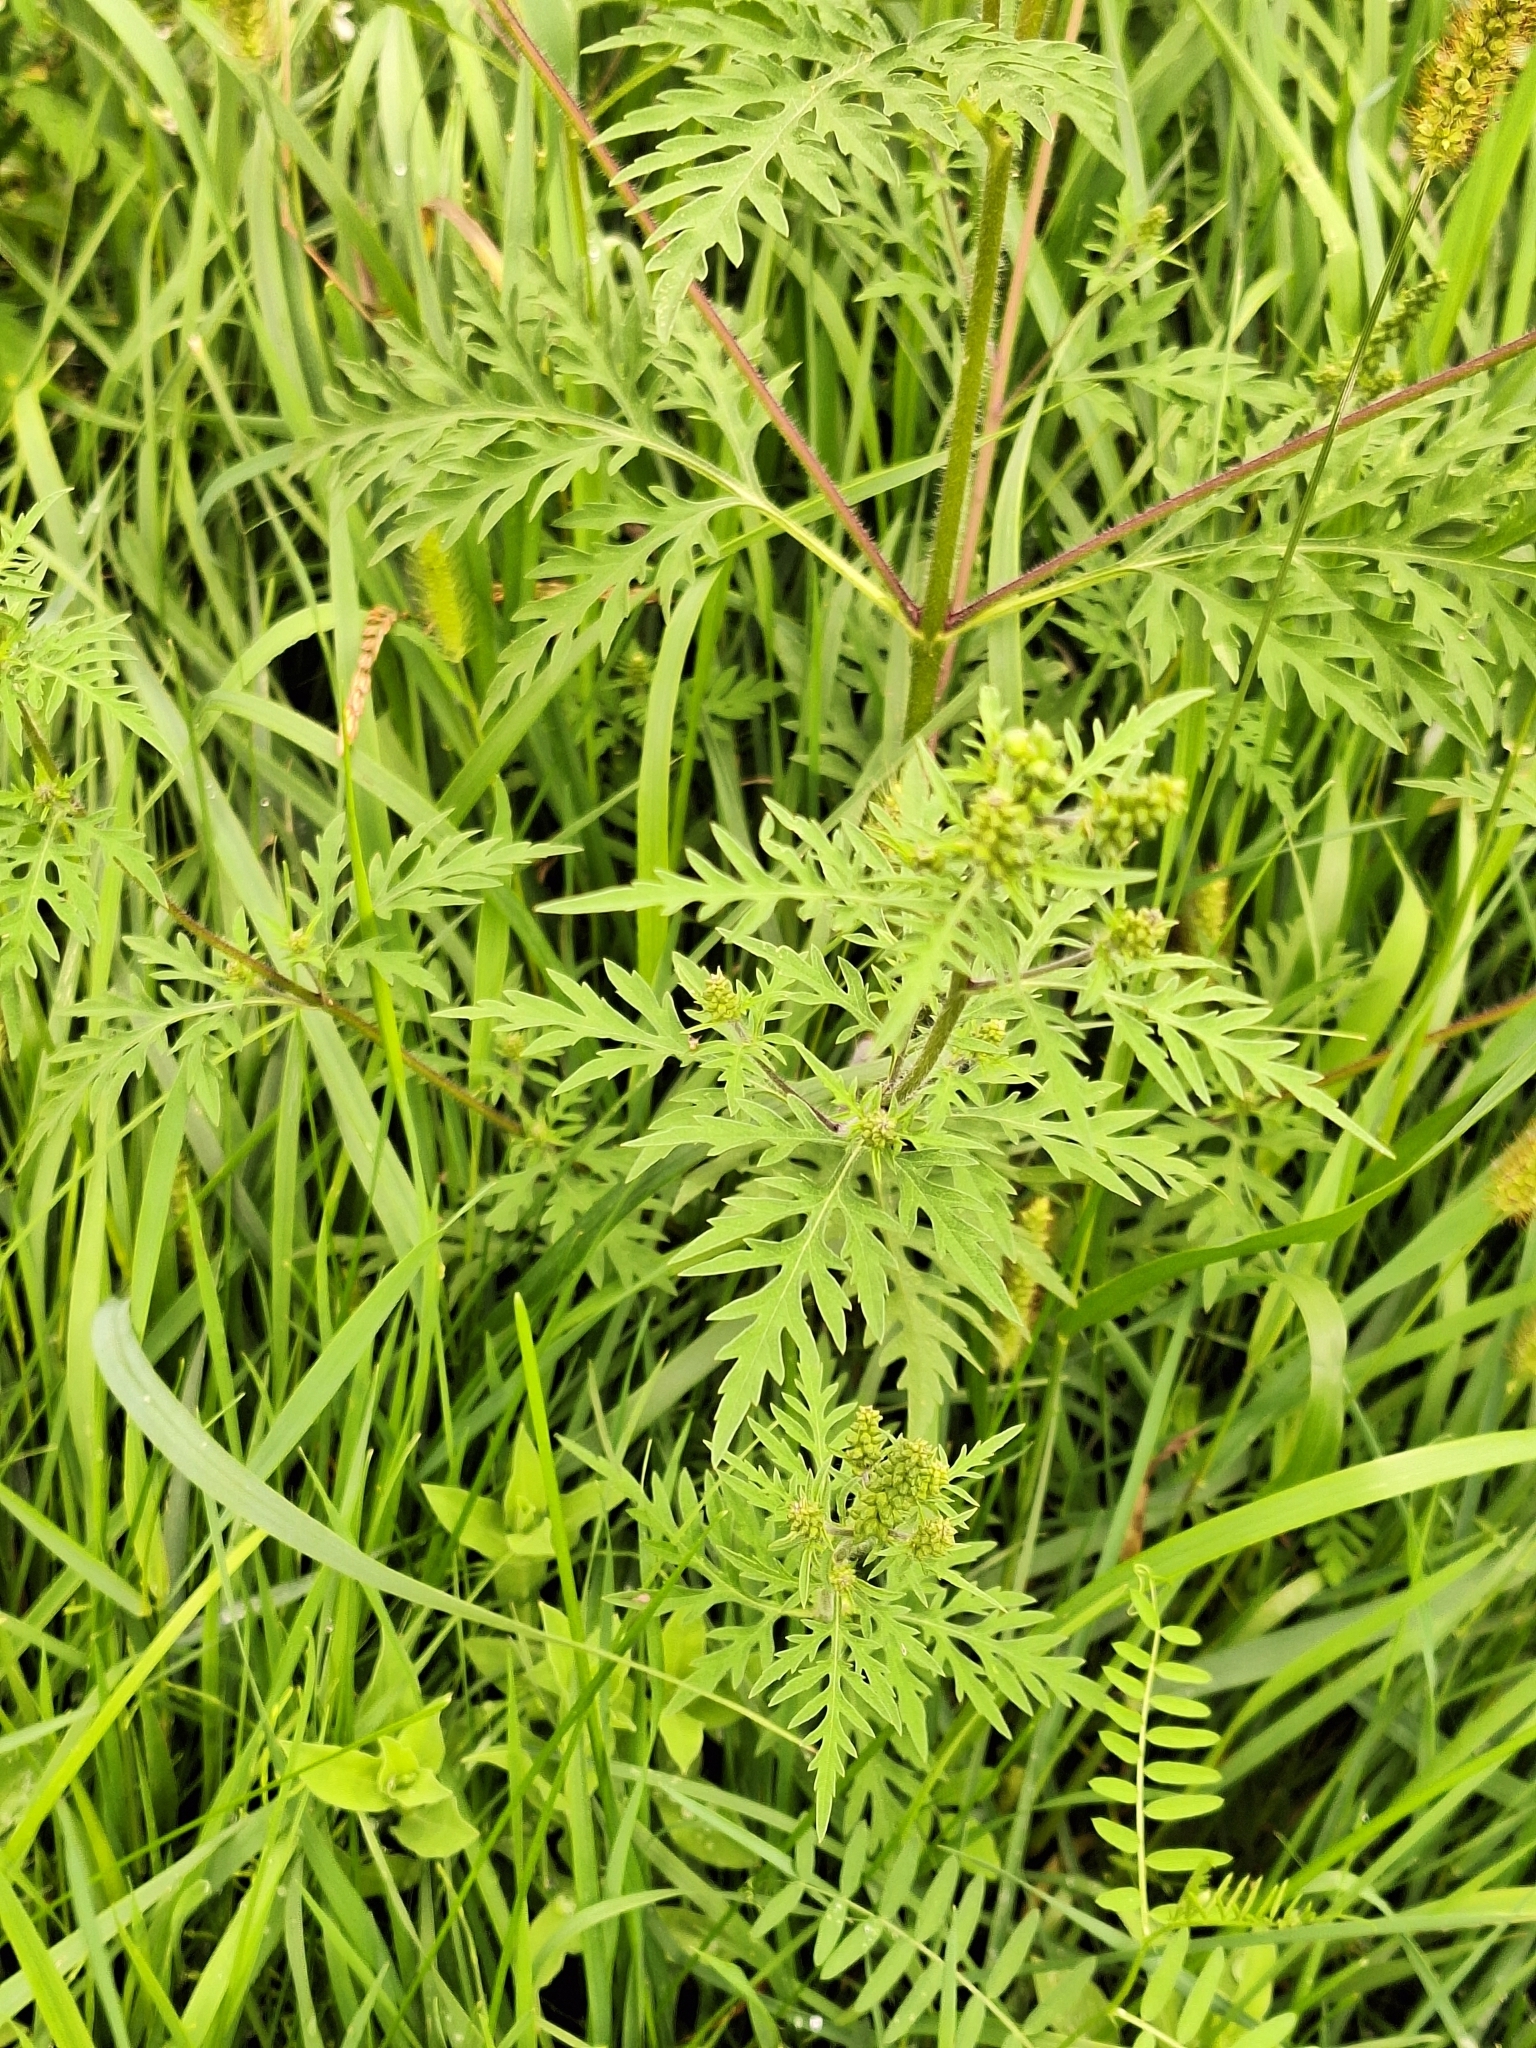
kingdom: Plantae
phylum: Tracheophyta
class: Magnoliopsida
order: Asterales
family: Asteraceae
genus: Ambrosia
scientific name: Ambrosia artemisiifolia
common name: Annual ragweed
